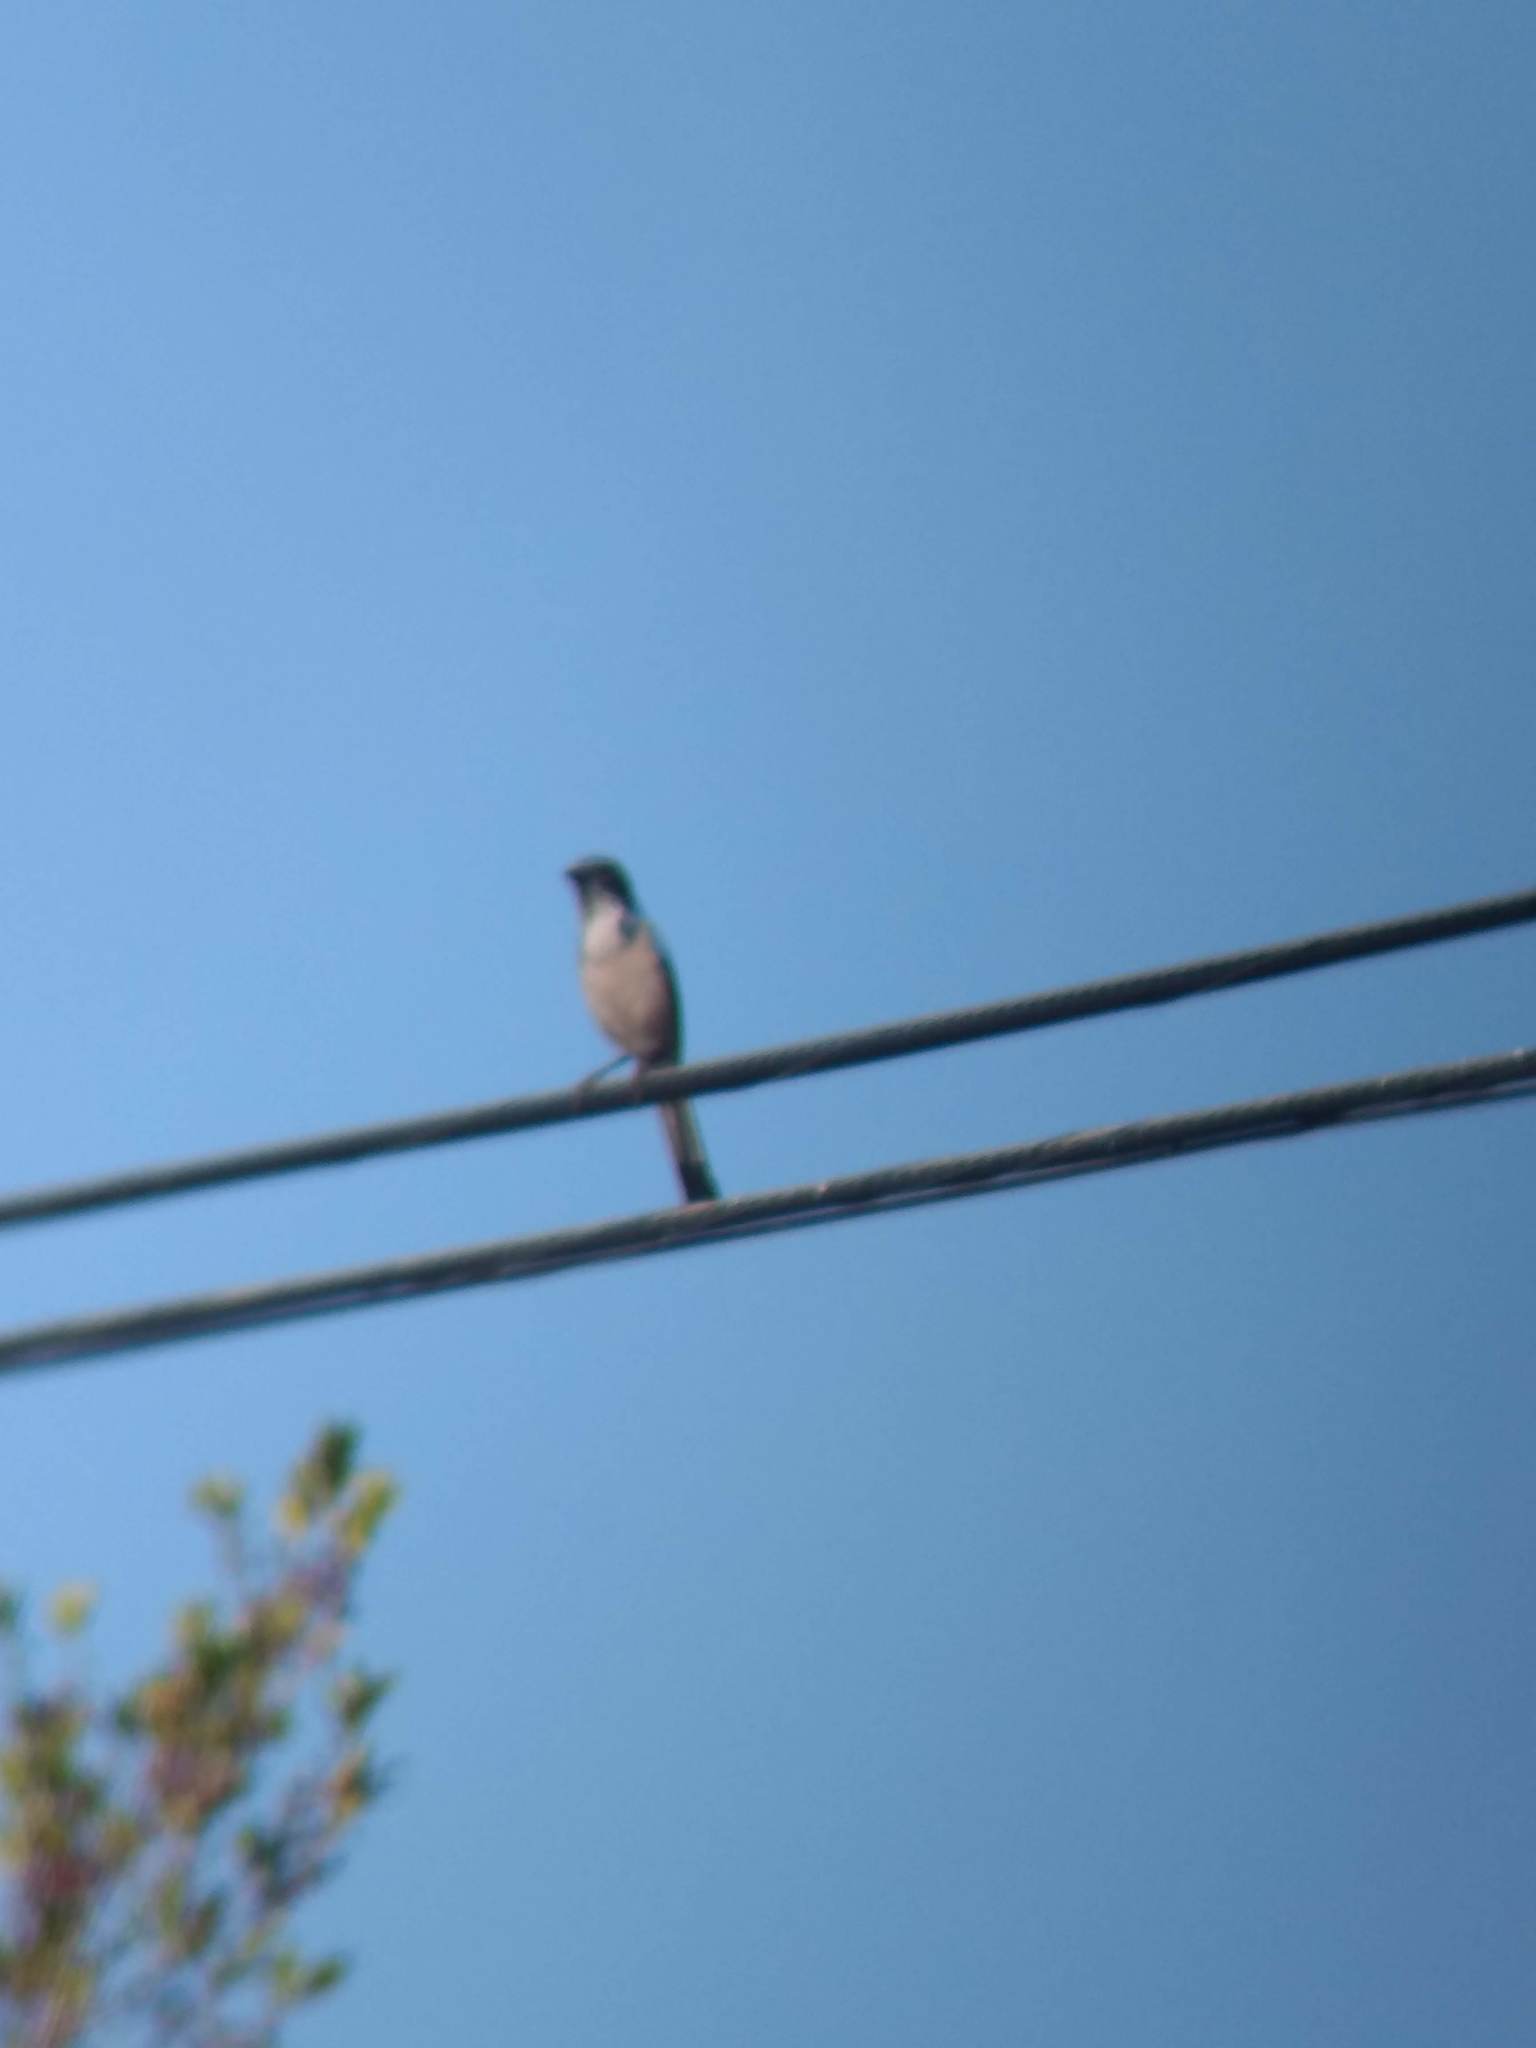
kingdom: Animalia
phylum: Chordata
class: Aves
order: Passeriformes
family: Corvidae
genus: Aphelocoma
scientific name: Aphelocoma californica
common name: California scrub-jay
